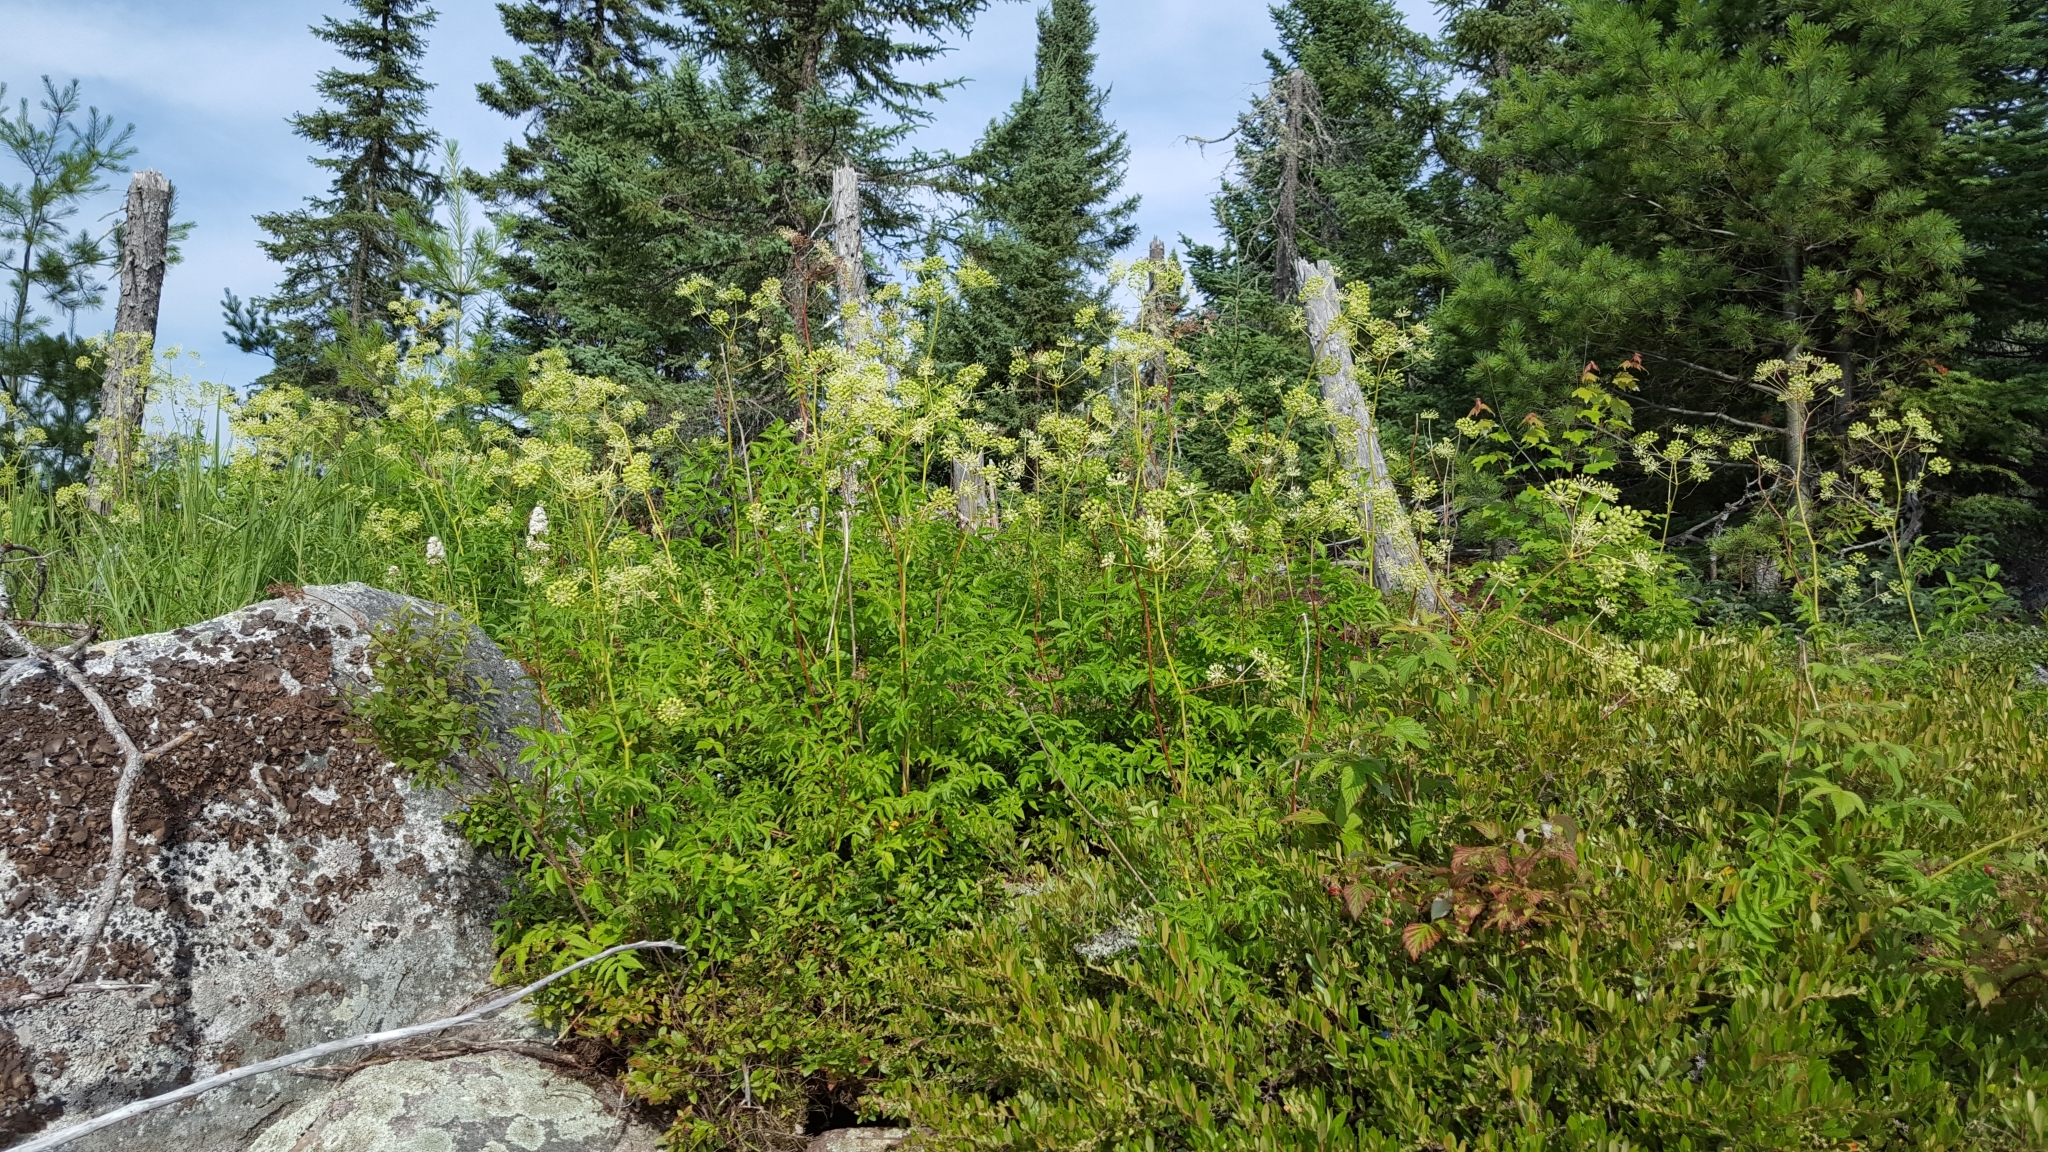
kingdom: Plantae
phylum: Tracheophyta
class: Magnoliopsida
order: Apiales
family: Araliaceae
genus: Aralia
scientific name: Aralia hispida
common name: Bristly sarsaparilla
